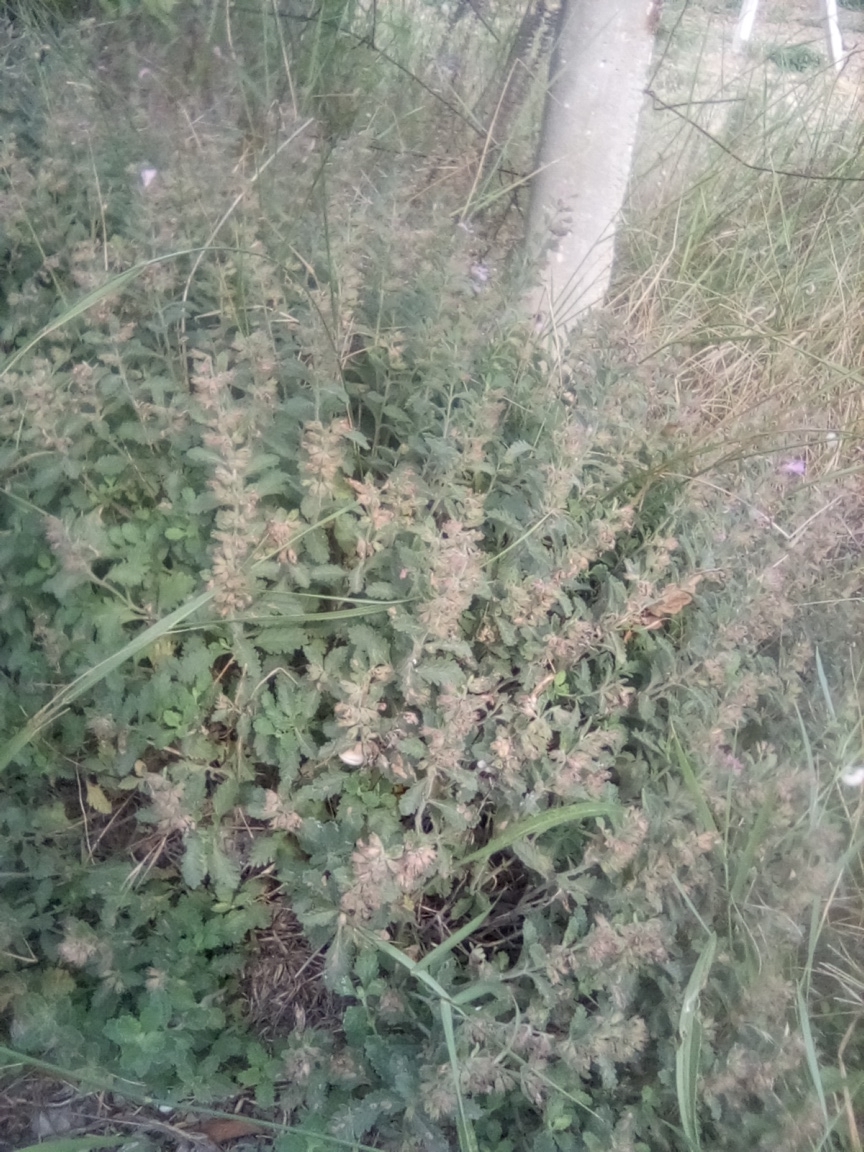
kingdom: Plantae
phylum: Tracheophyta
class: Magnoliopsida
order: Lamiales
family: Lamiaceae
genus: Teucrium
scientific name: Teucrium chamaedrys
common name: Wall germander
